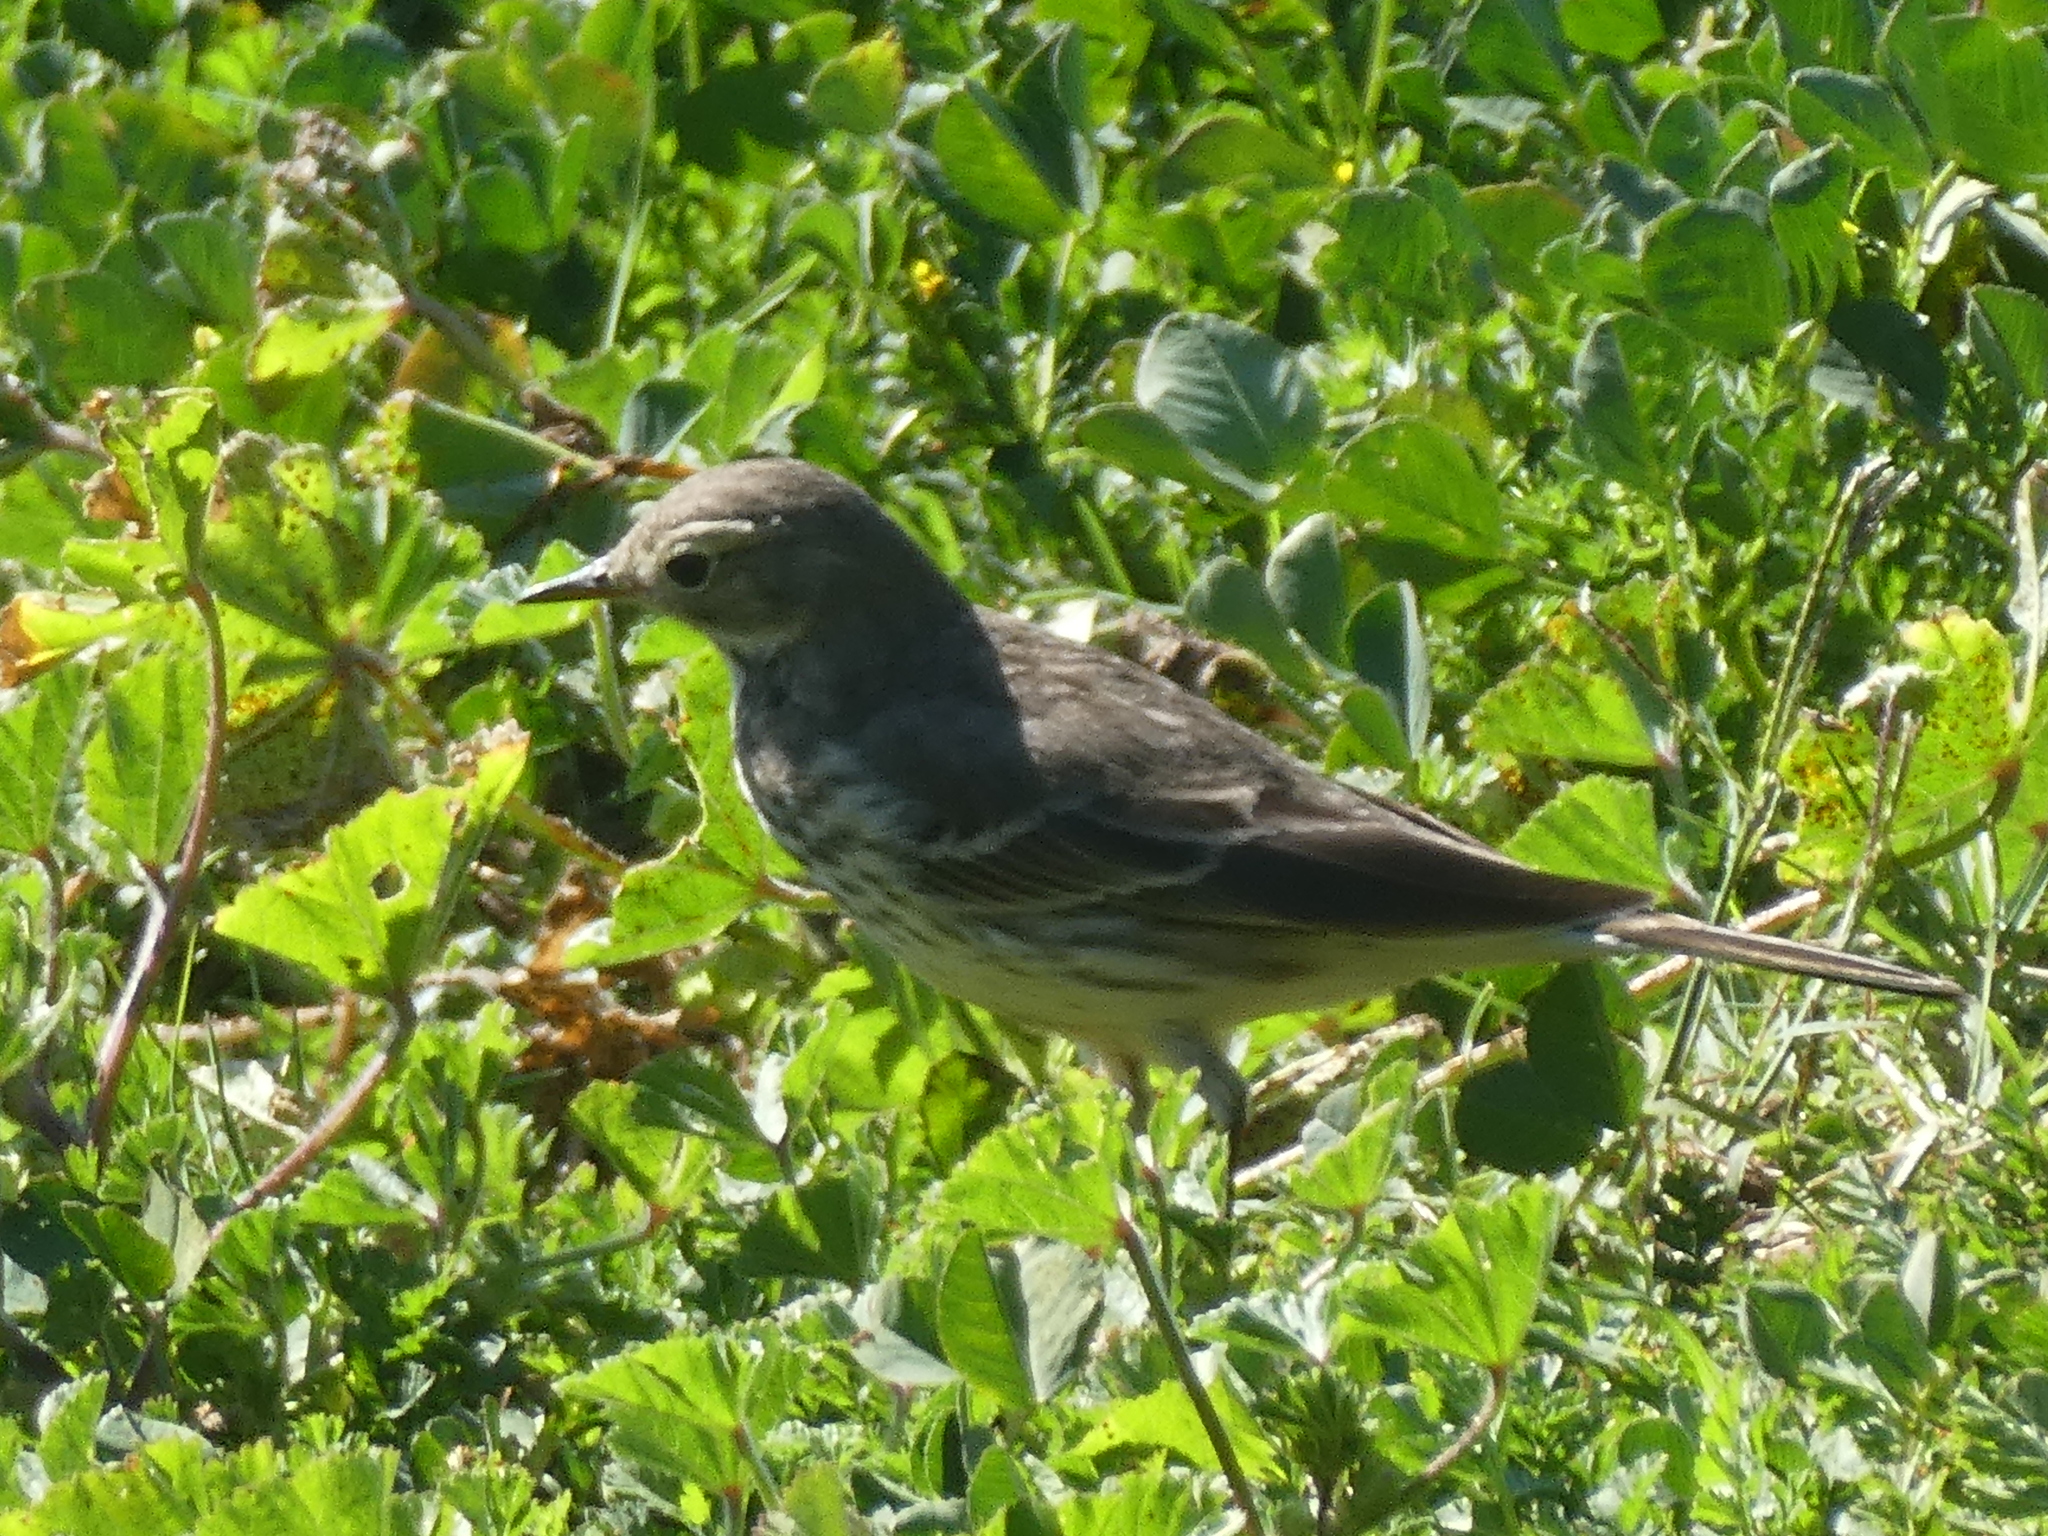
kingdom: Animalia
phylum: Chordata
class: Aves
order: Passeriformes
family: Motacillidae
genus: Anthus
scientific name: Anthus rubescens
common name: Buff-bellied pipit
